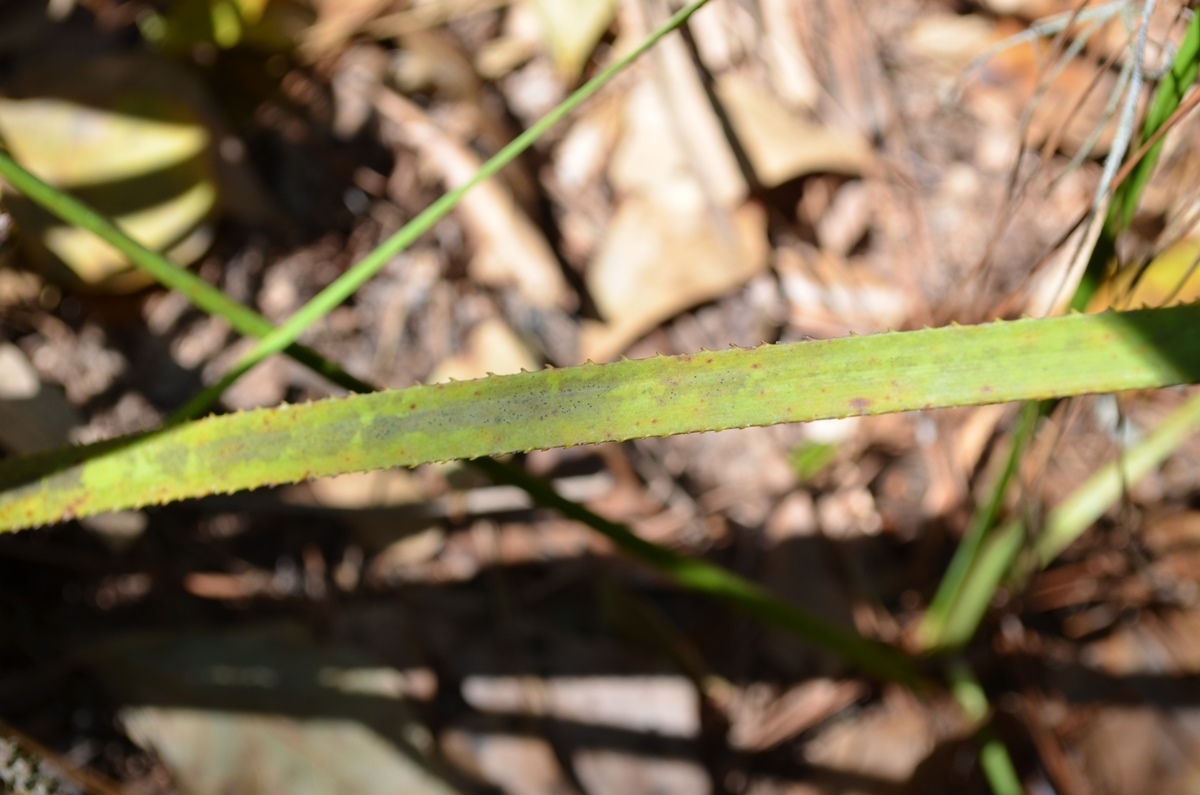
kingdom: Plantae
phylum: Tracheophyta
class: Liliopsida
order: Arecales
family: Arecaceae
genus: Serenoa
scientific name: Serenoa repens
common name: Saw-palmetto
